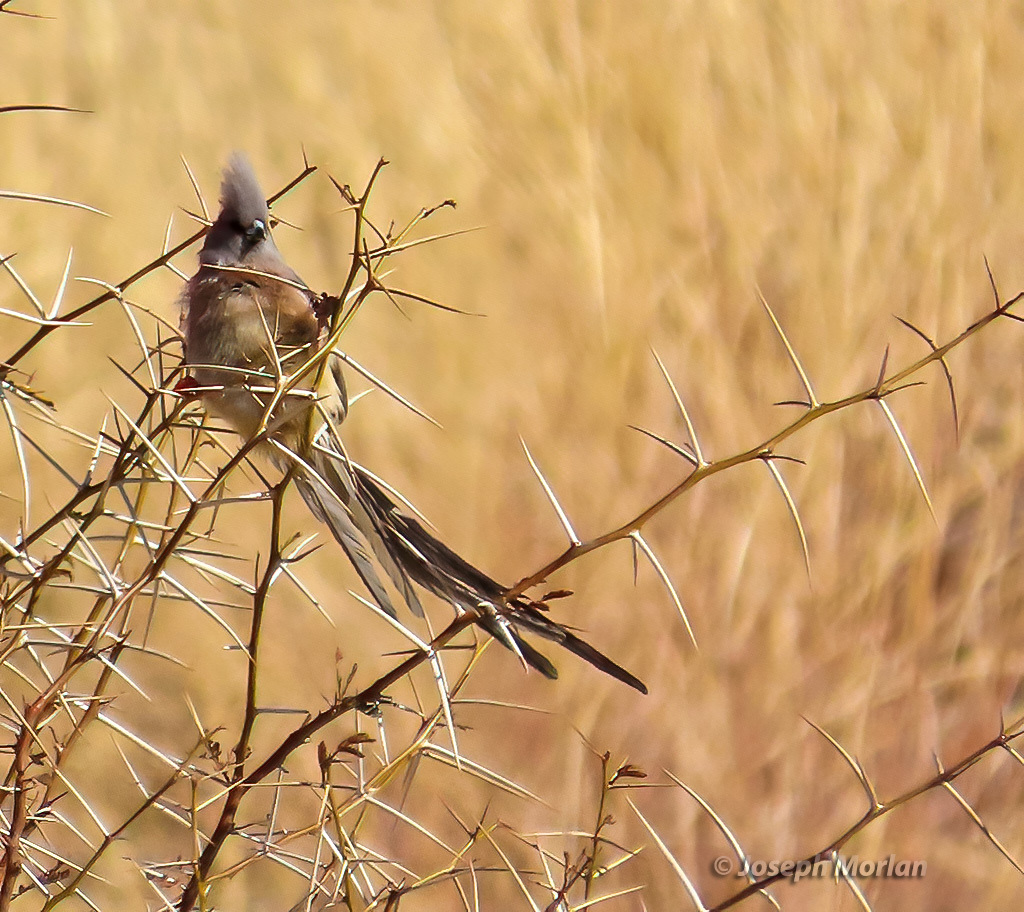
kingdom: Animalia
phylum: Chordata
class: Aves
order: Coliiformes
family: Coliidae
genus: Colius
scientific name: Colius colius
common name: White-backed mousebird
